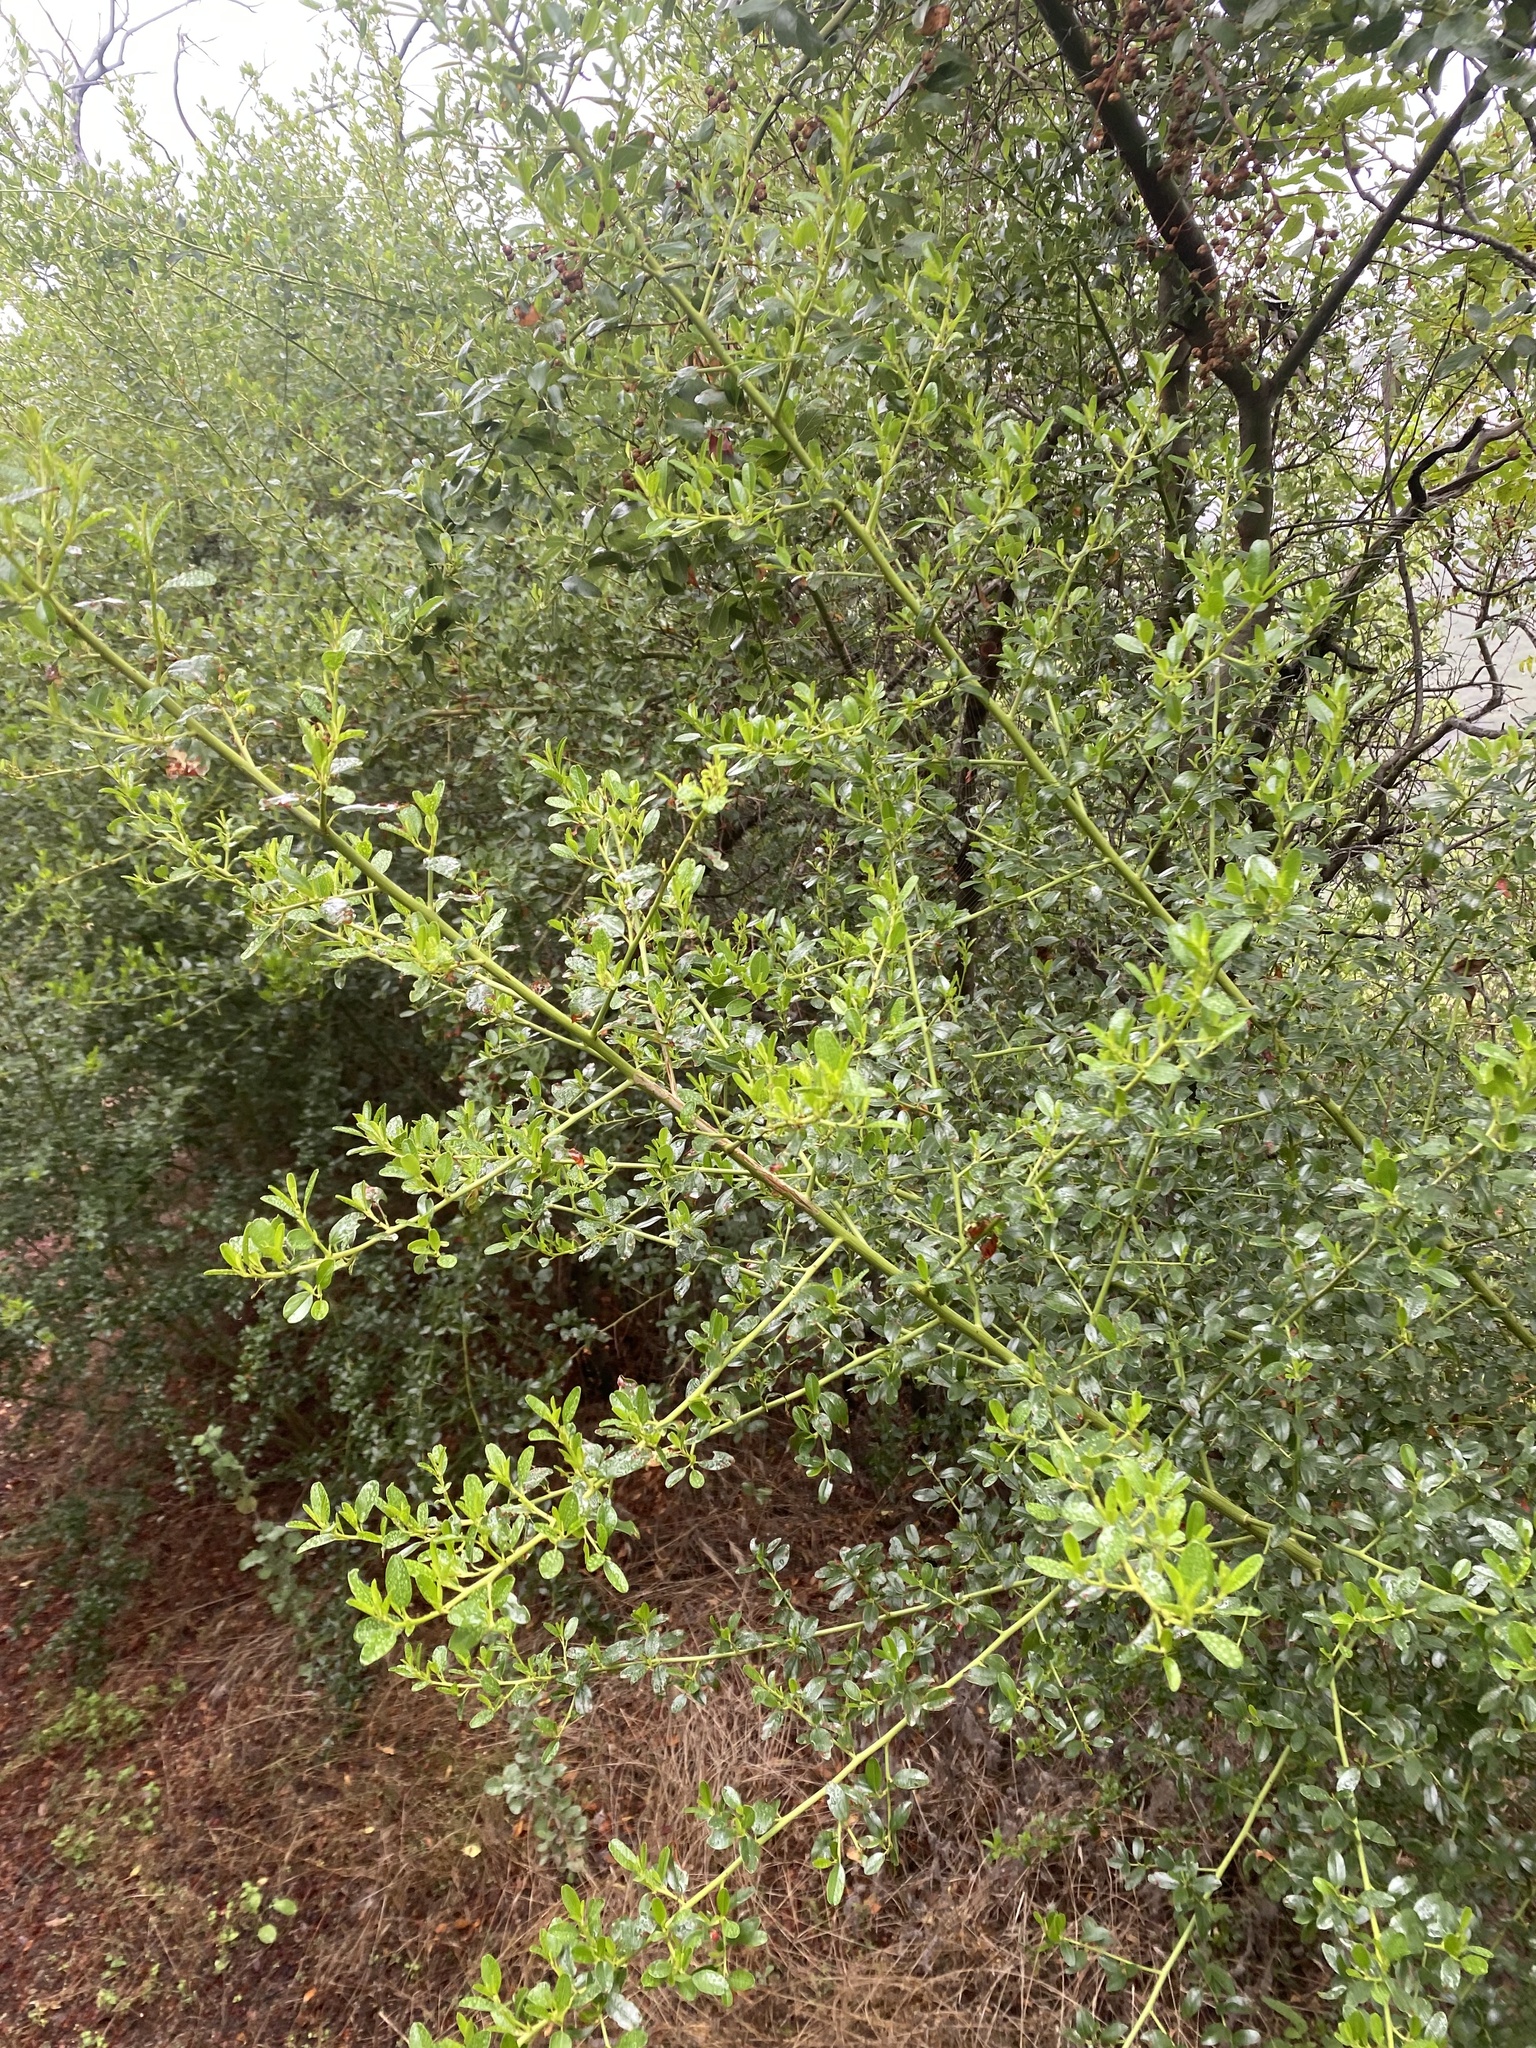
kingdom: Plantae
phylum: Tracheophyta
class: Magnoliopsida
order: Rosales
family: Rhamnaceae
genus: Ceanothus
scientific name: Ceanothus spinosus
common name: Greenbark whitethorn
